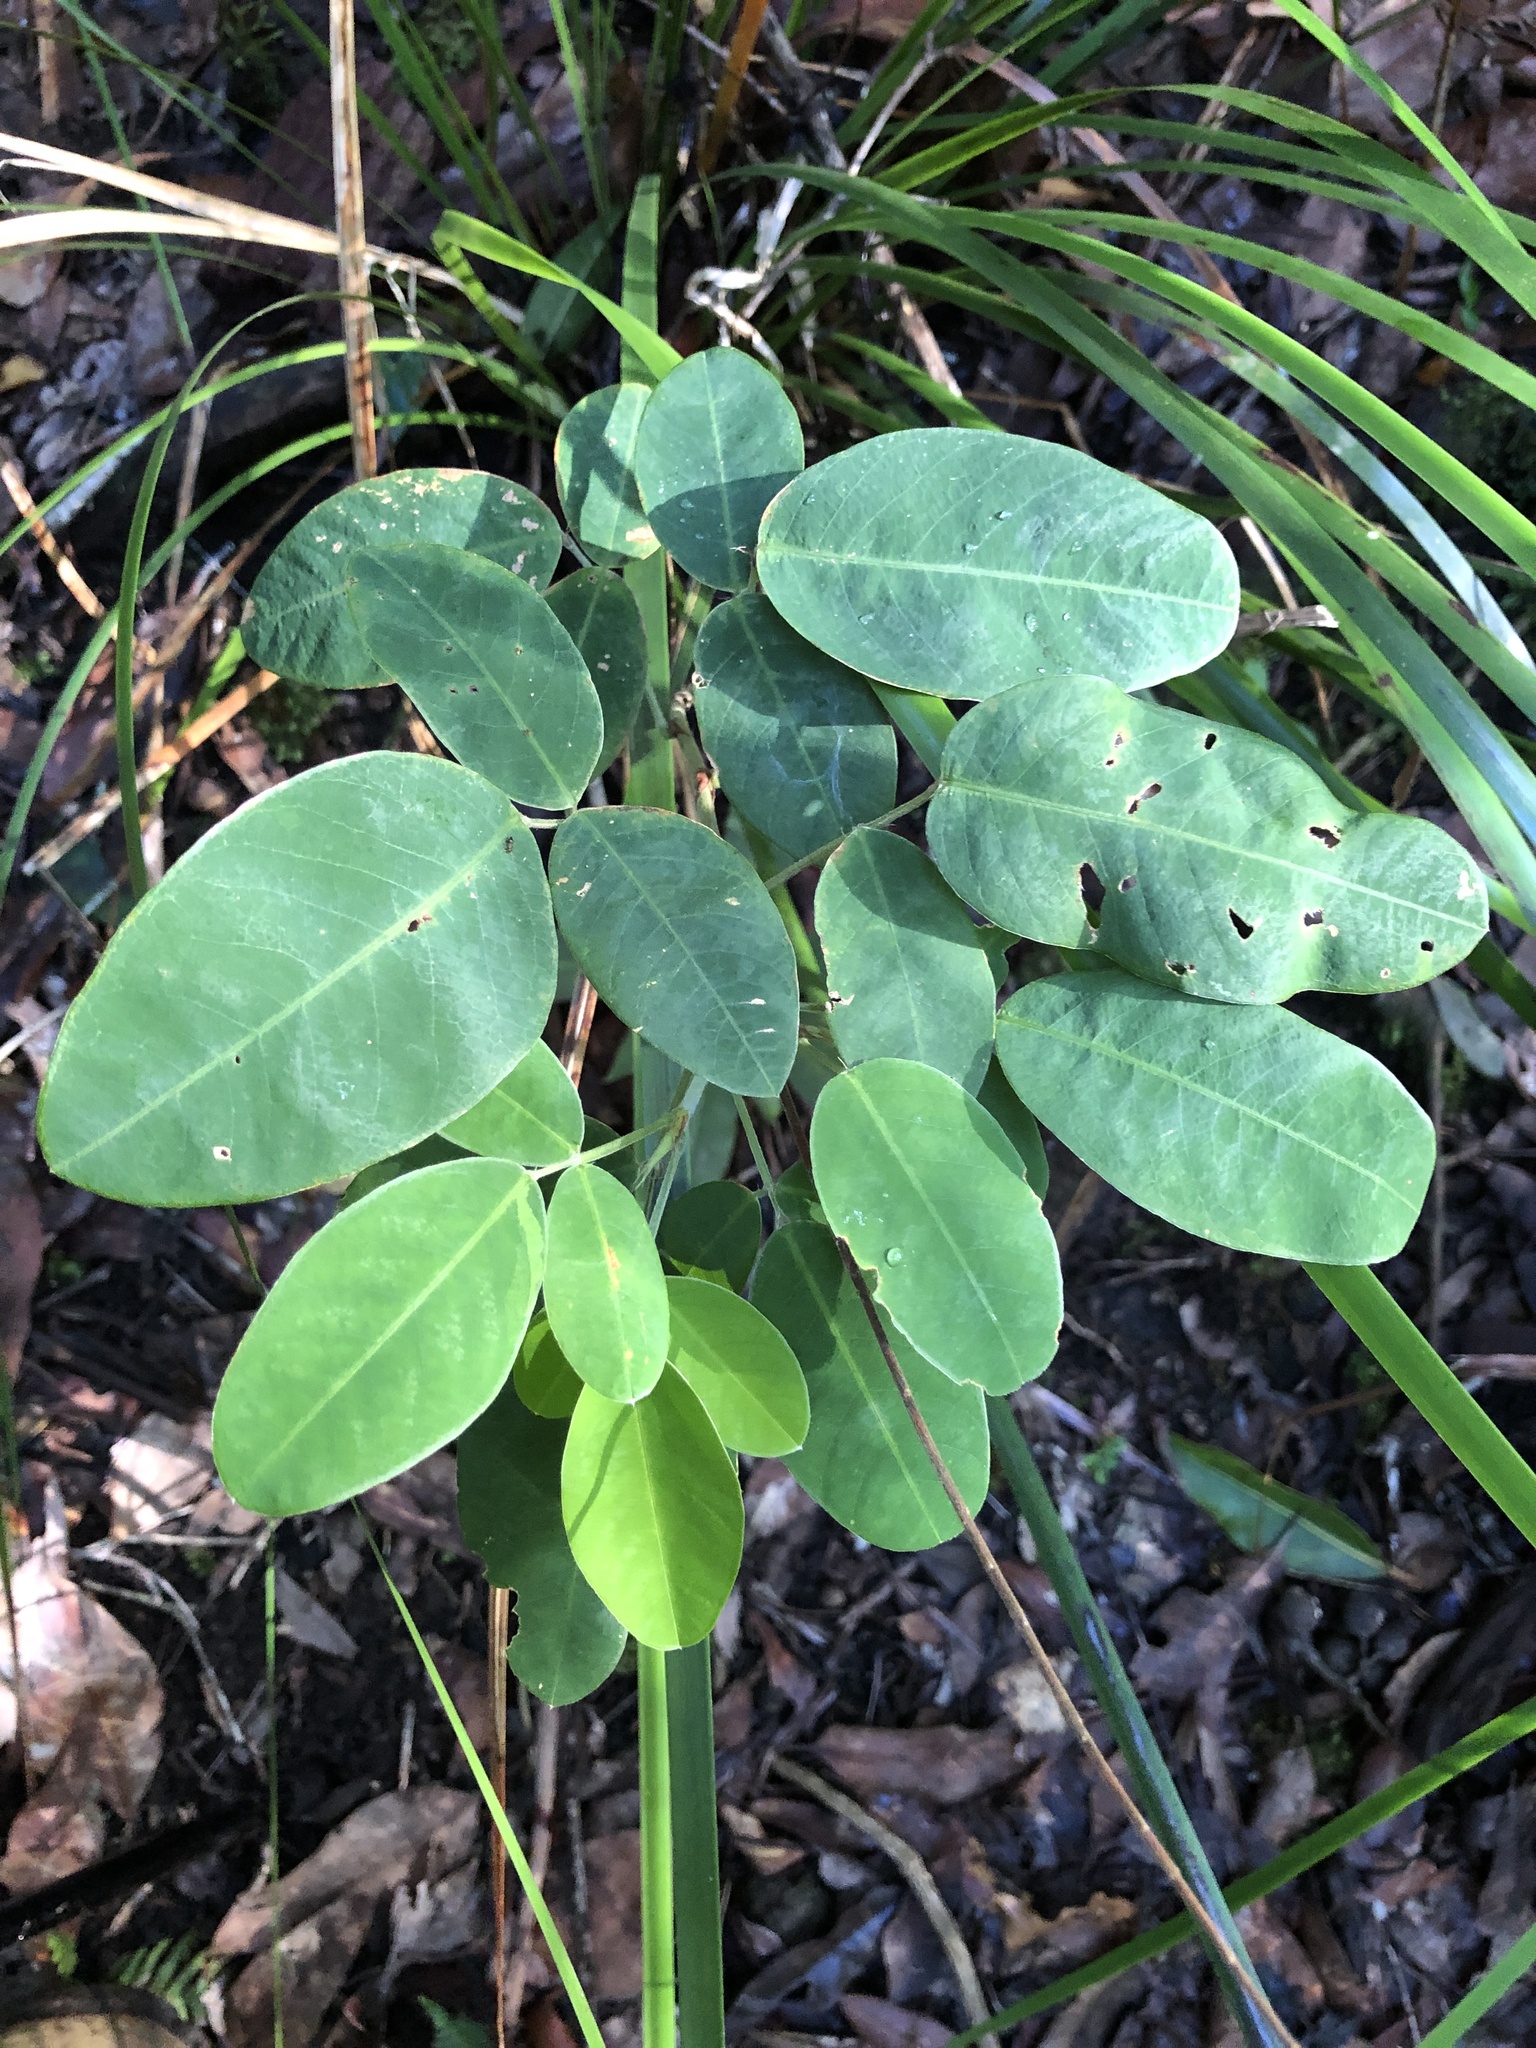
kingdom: Plantae
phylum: Tracheophyta
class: Magnoliopsida
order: Fabales
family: Fabaceae
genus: Grona
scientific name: Grona nemorosa
